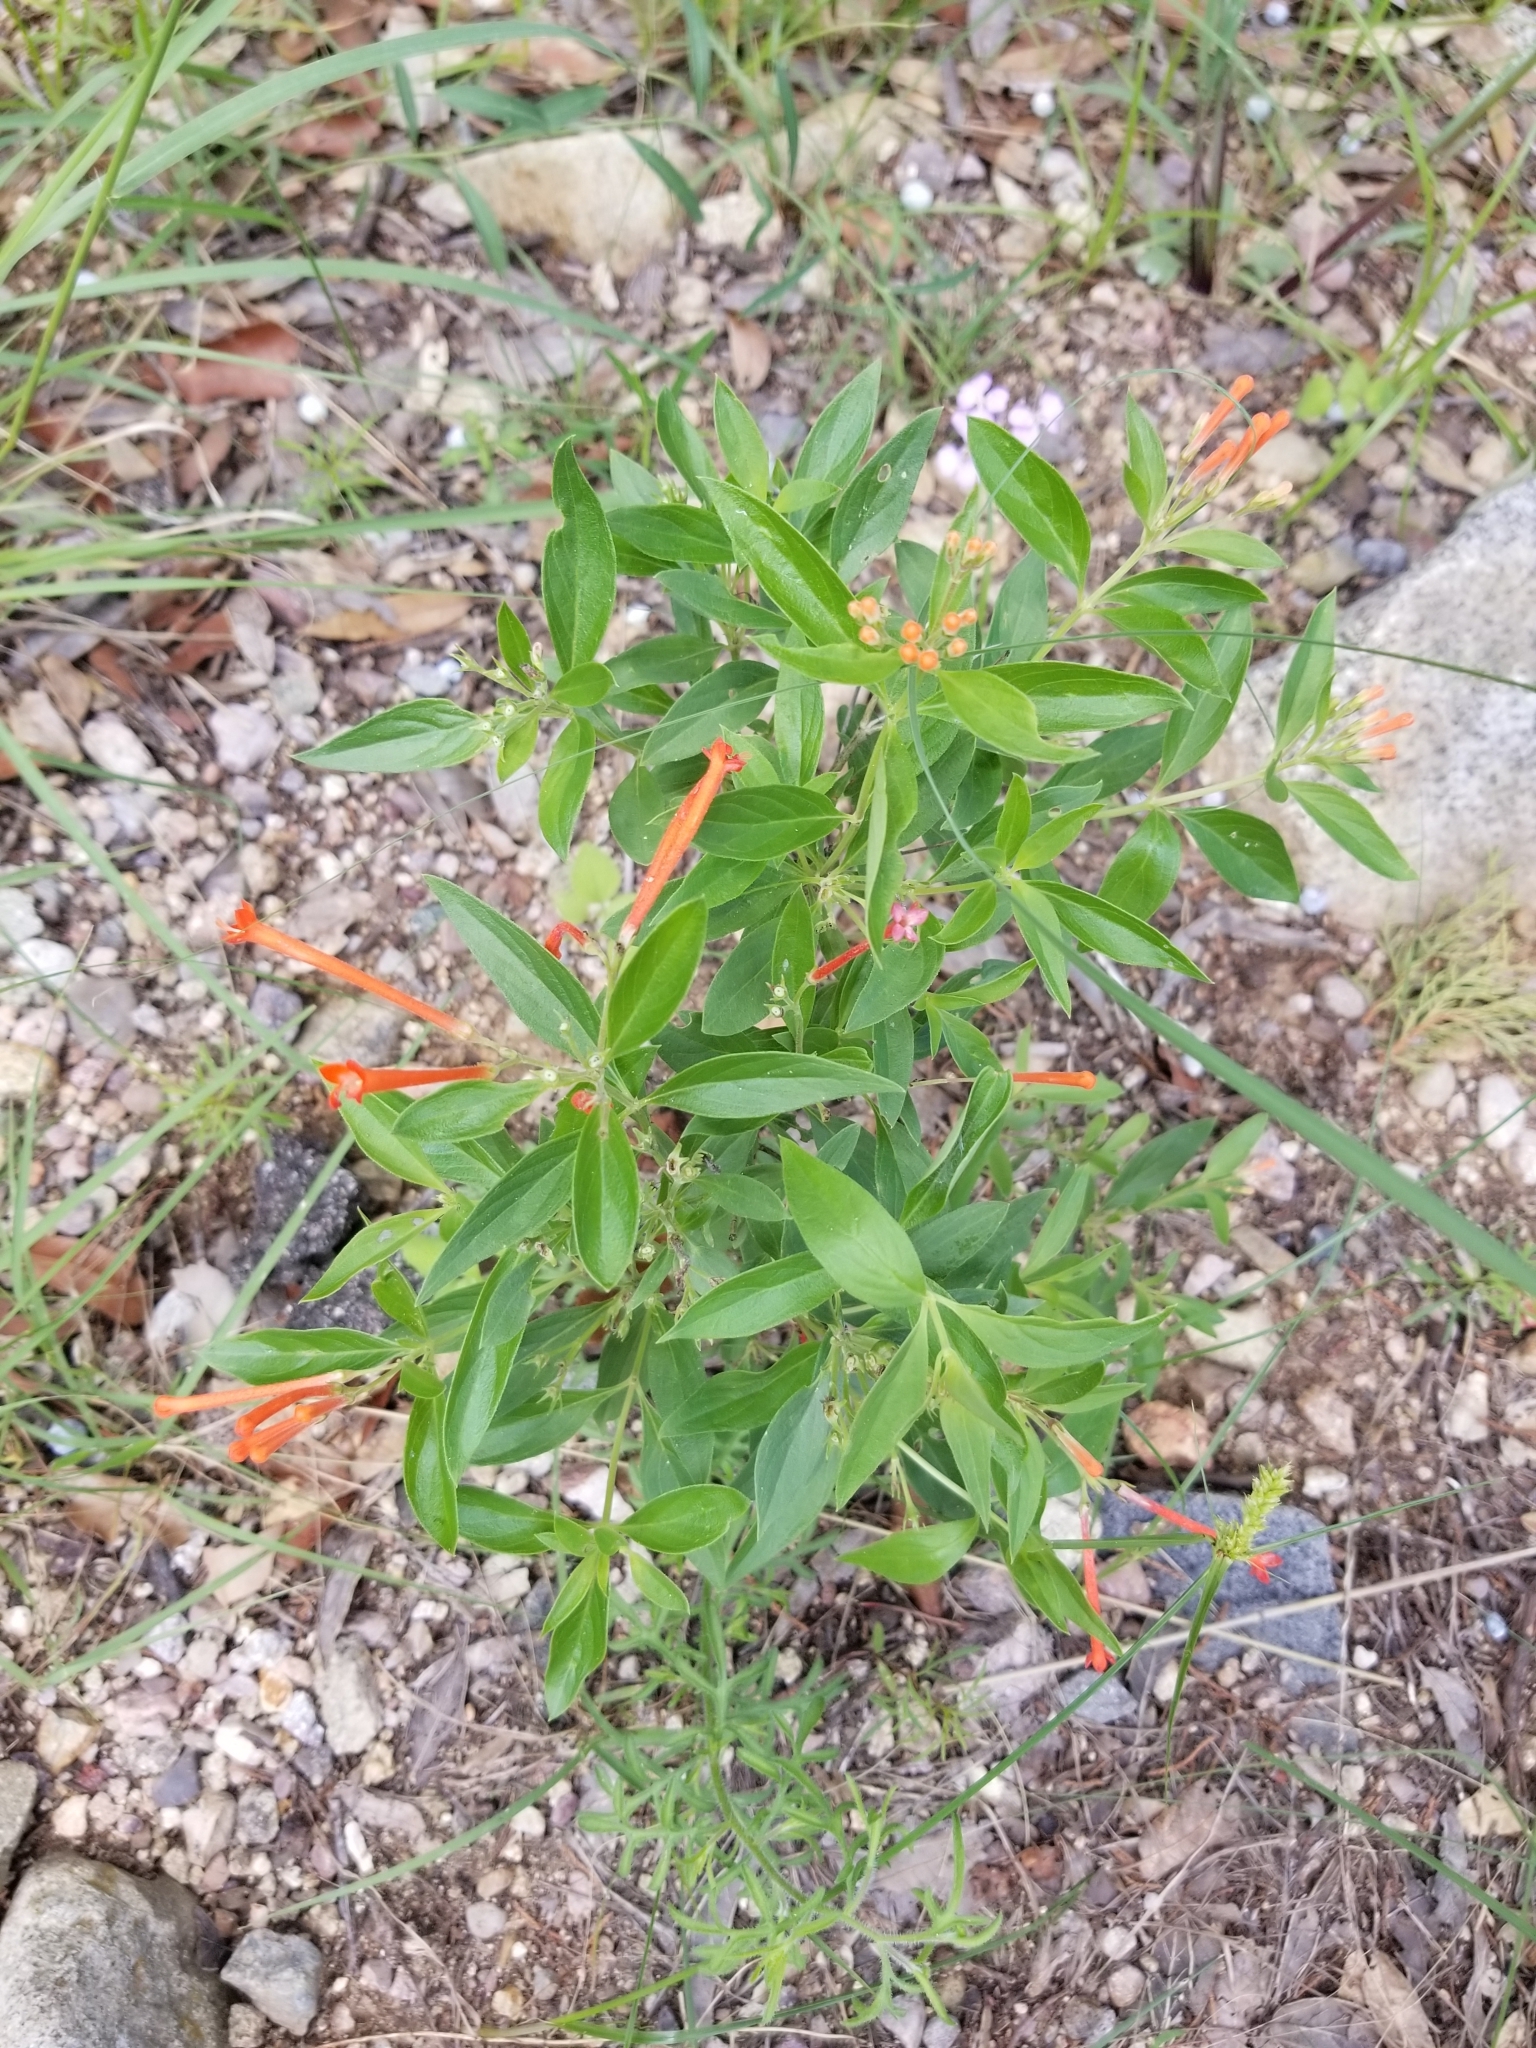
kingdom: Plantae
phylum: Tracheophyta
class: Magnoliopsida
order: Gentianales
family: Rubiaceae
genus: Bouvardia
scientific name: Bouvardia ternifolia
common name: Scarlet bouvardia
